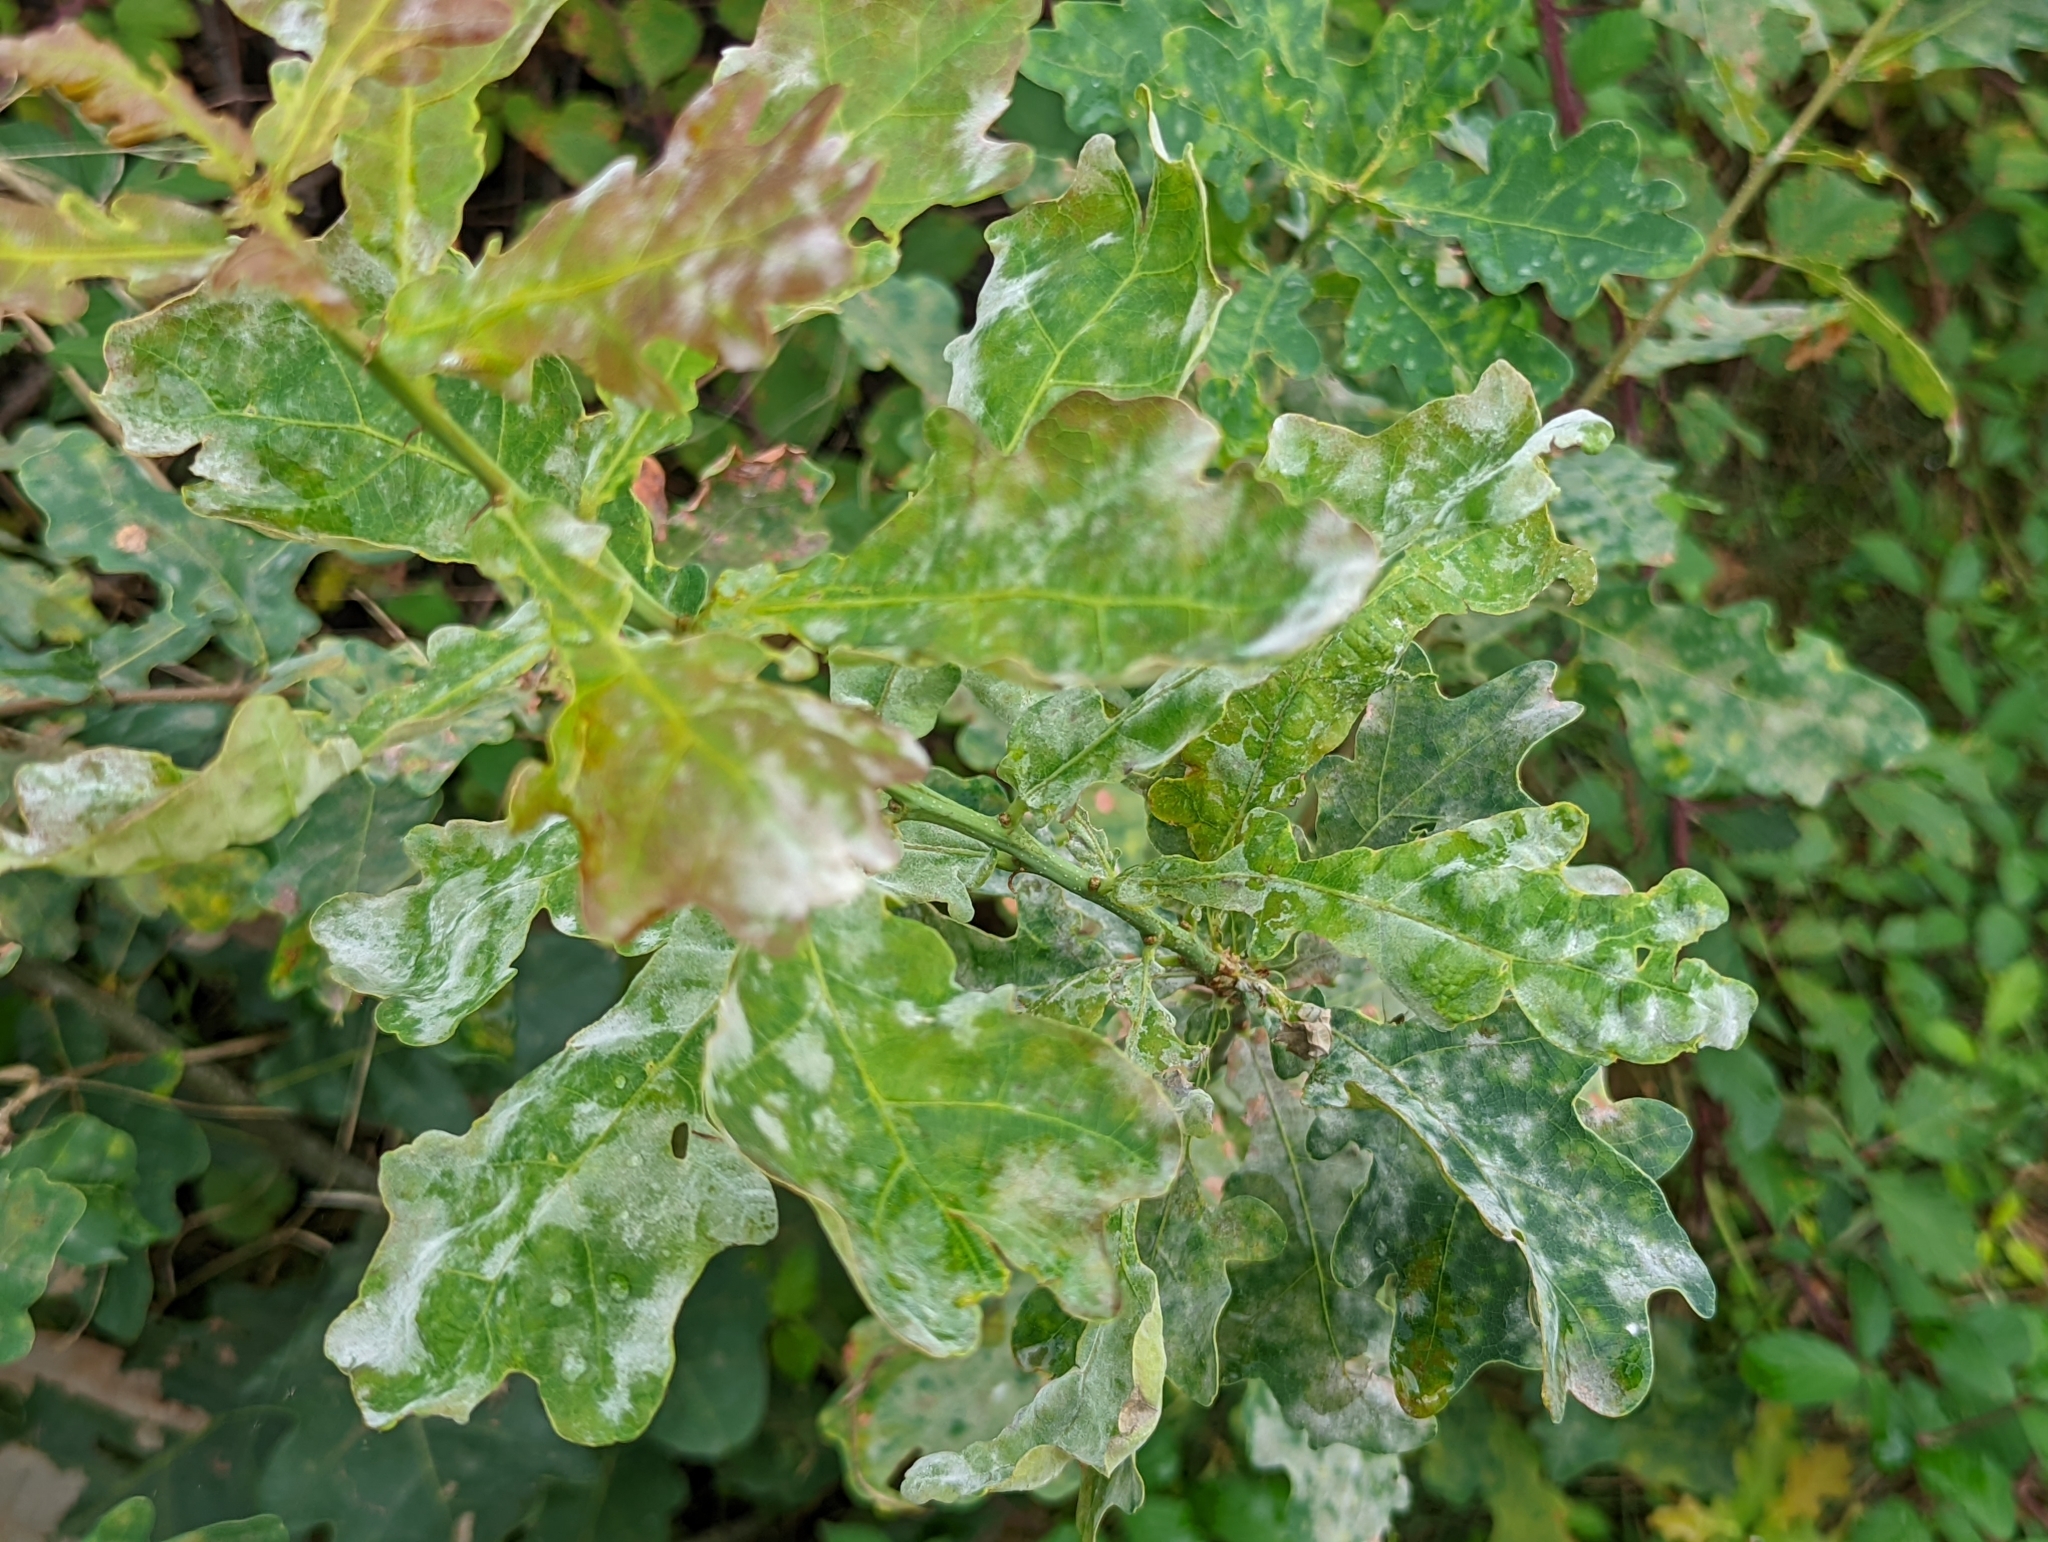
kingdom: Fungi
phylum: Ascomycota
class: Leotiomycetes
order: Helotiales
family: Erysiphaceae
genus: Erysiphe
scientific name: Erysiphe
